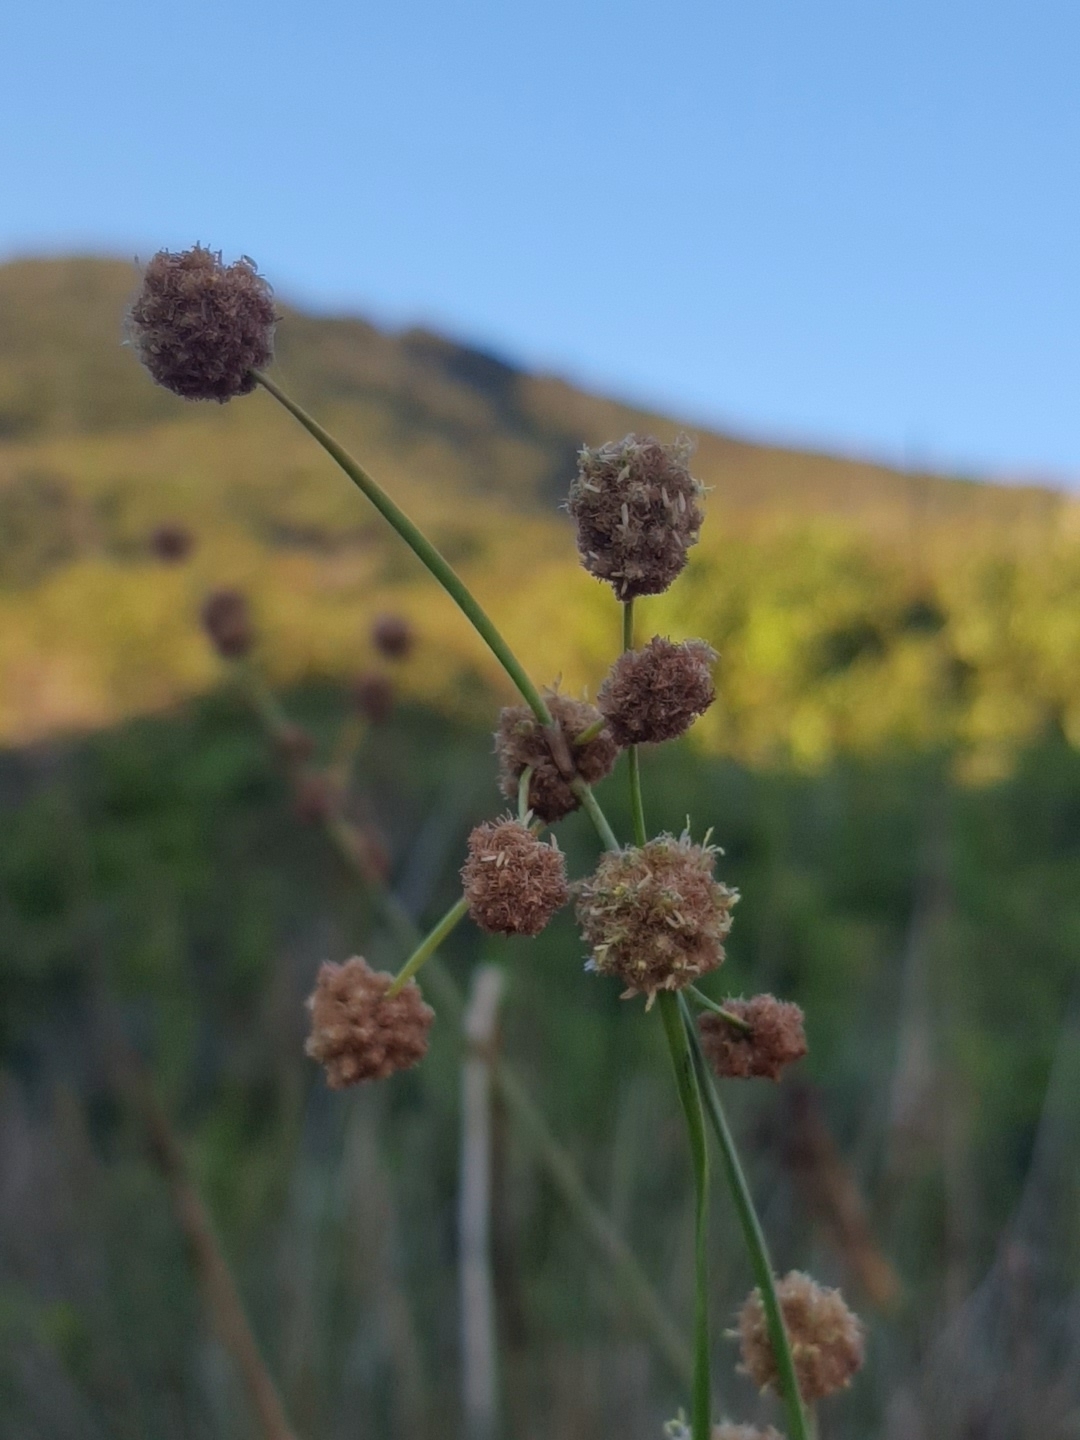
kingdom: Plantae
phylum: Tracheophyta
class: Liliopsida
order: Poales
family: Cyperaceae
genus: Scirpoides
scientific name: Scirpoides holoschoenus
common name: Round-headed club-rush
